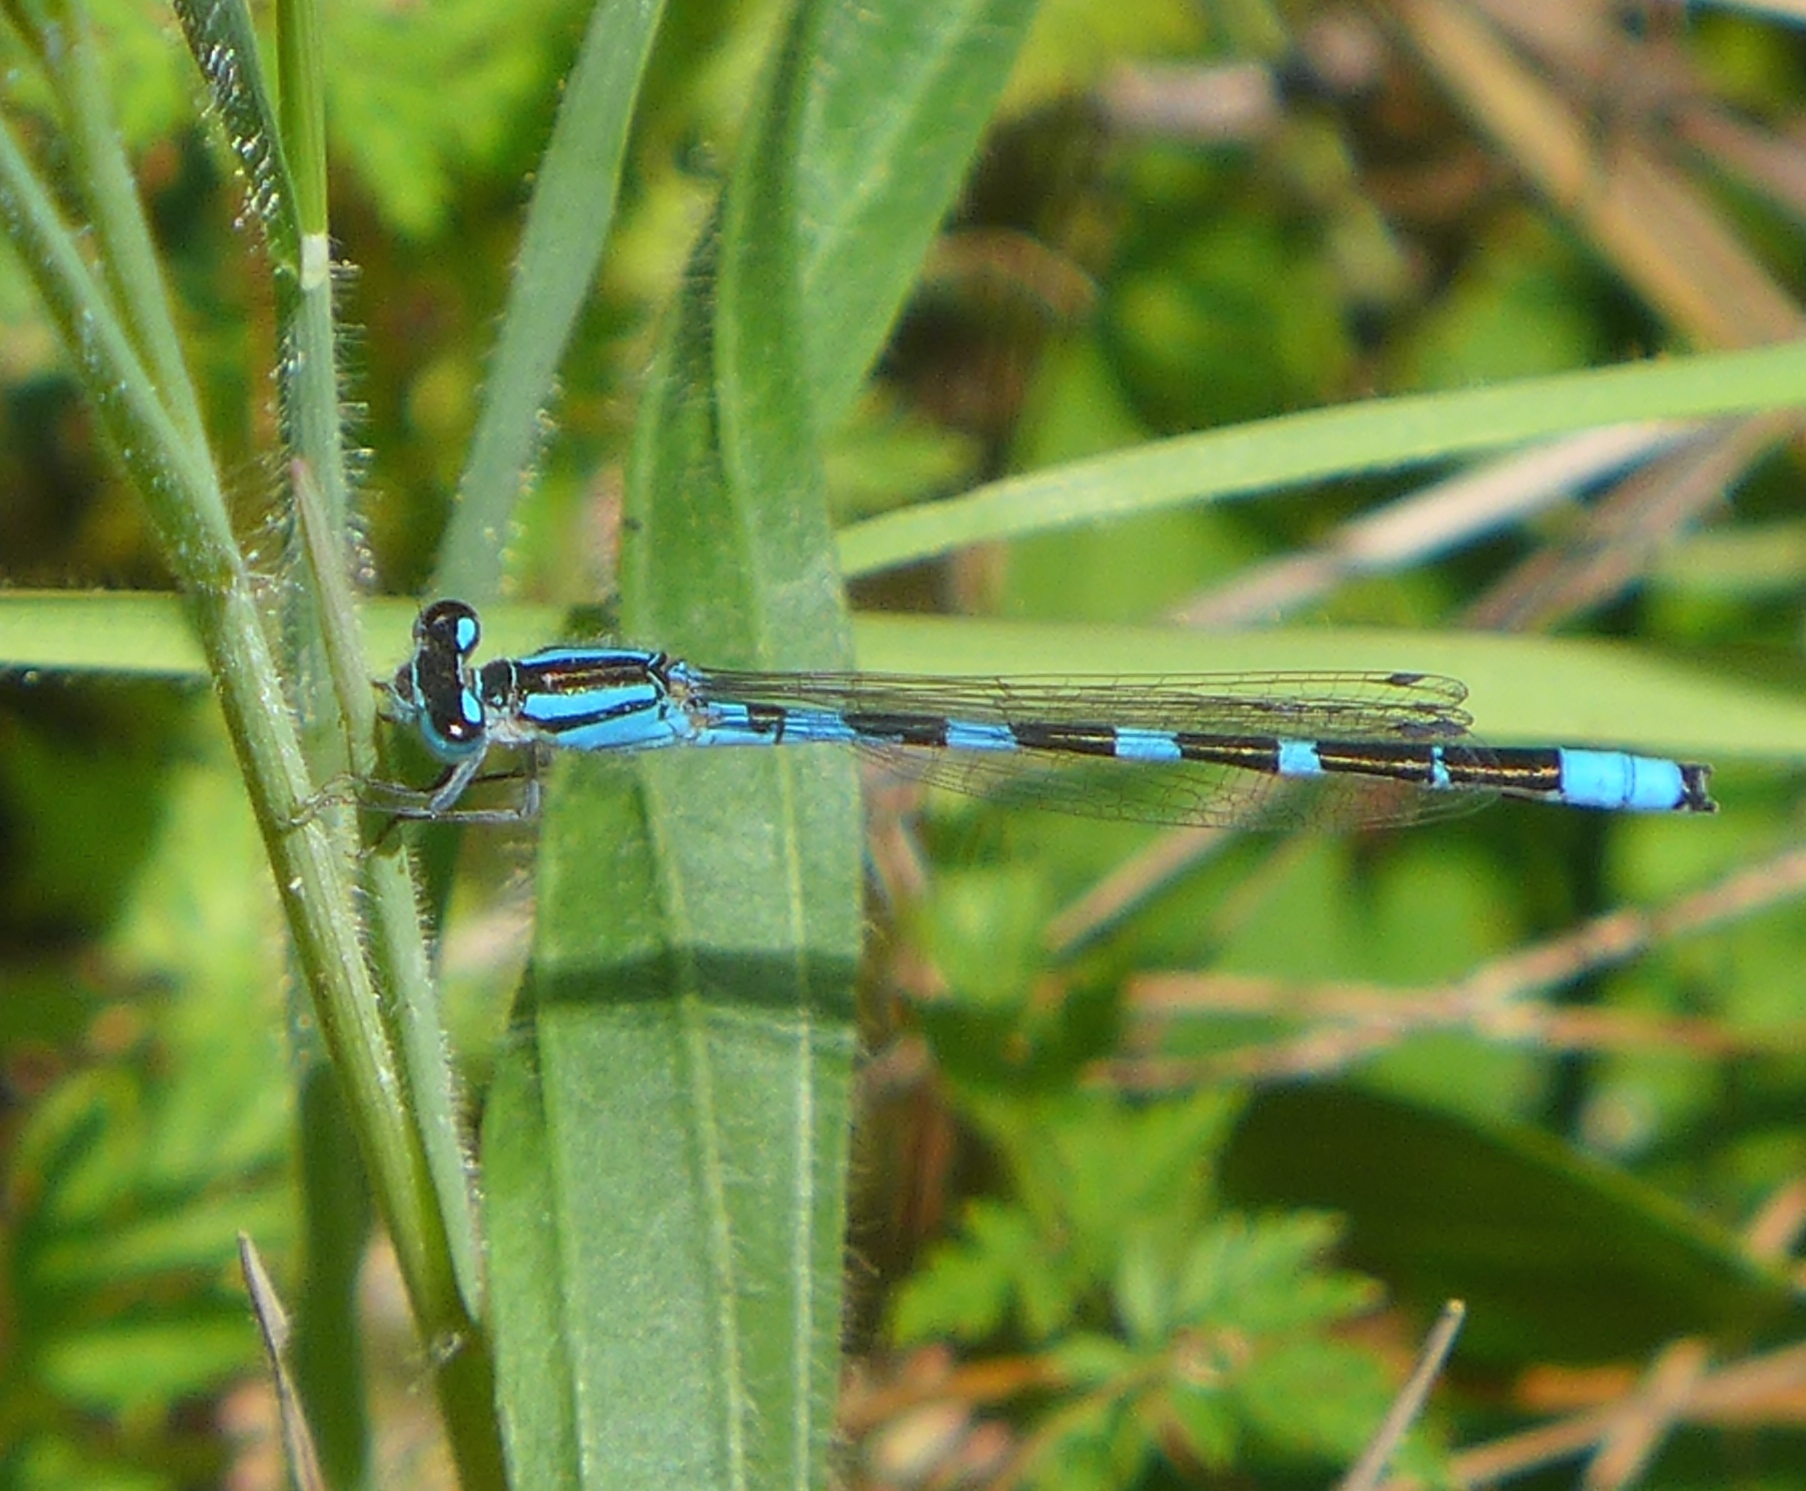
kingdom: Animalia
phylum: Arthropoda
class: Insecta
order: Odonata
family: Coenagrionidae
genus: Enallagma
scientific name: Enallagma carunculatum
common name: Tule bluet
